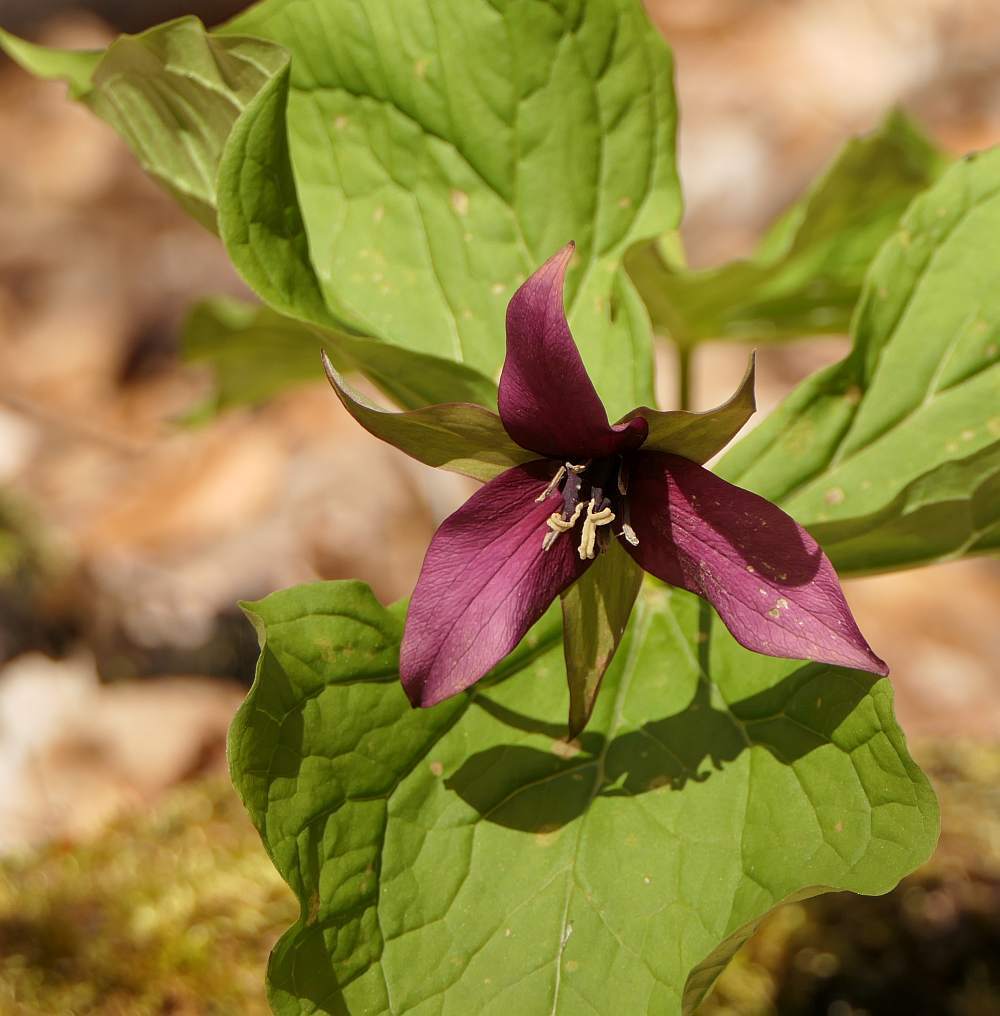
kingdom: Plantae
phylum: Tracheophyta
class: Liliopsida
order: Liliales
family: Melanthiaceae
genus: Trillium
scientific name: Trillium erectum
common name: Purple trillium
